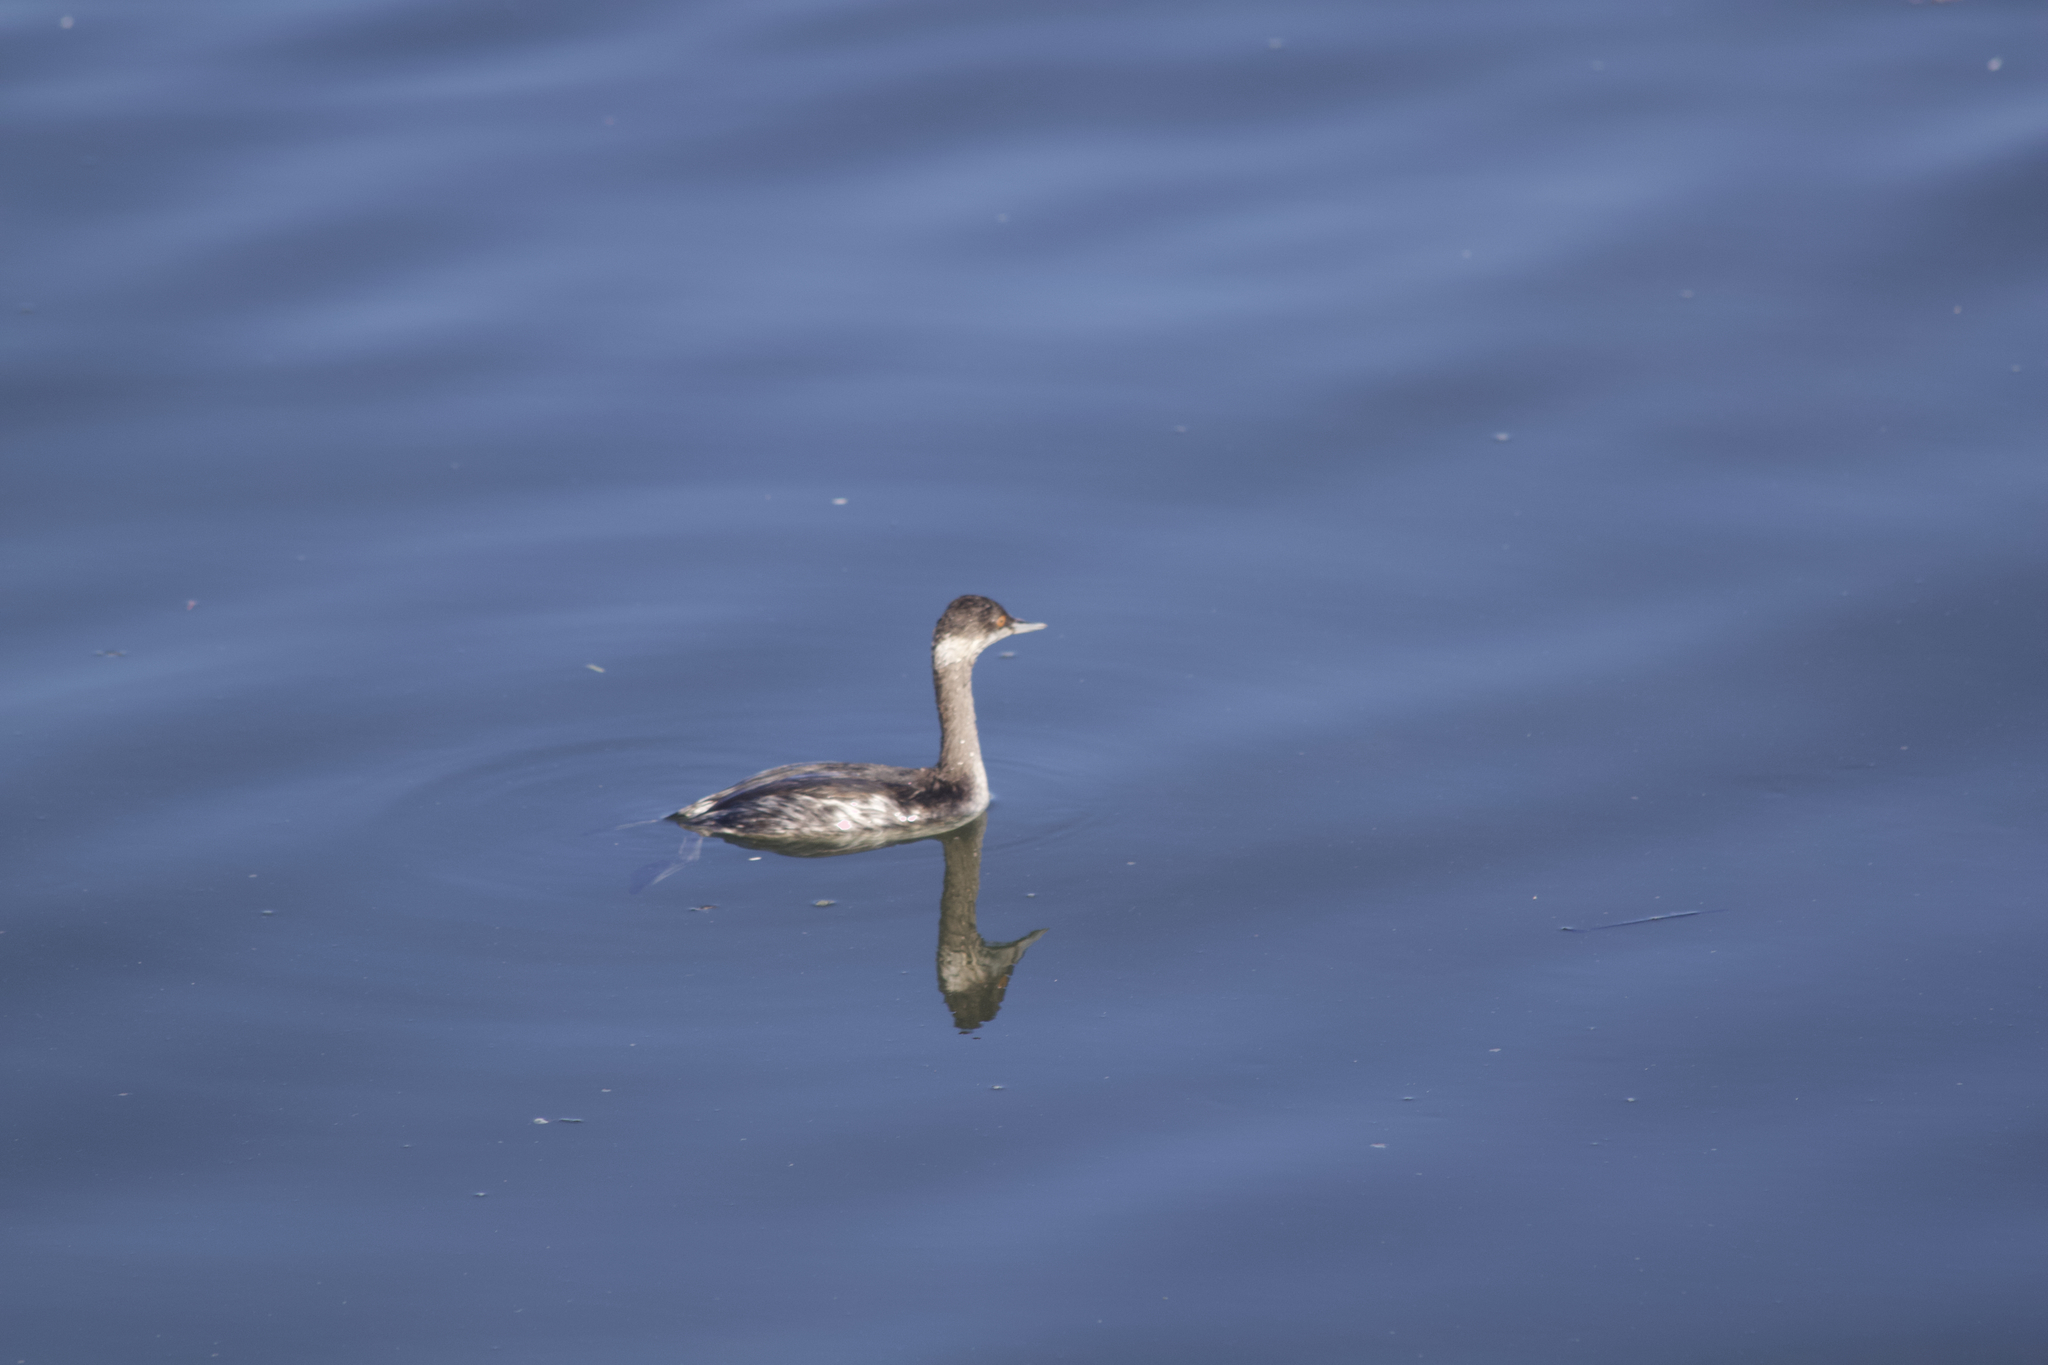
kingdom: Animalia
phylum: Chordata
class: Aves
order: Podicipediformes
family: Podicipedidae
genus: Podiceps
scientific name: Podiceps nigricollis
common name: Black-necked grebe
